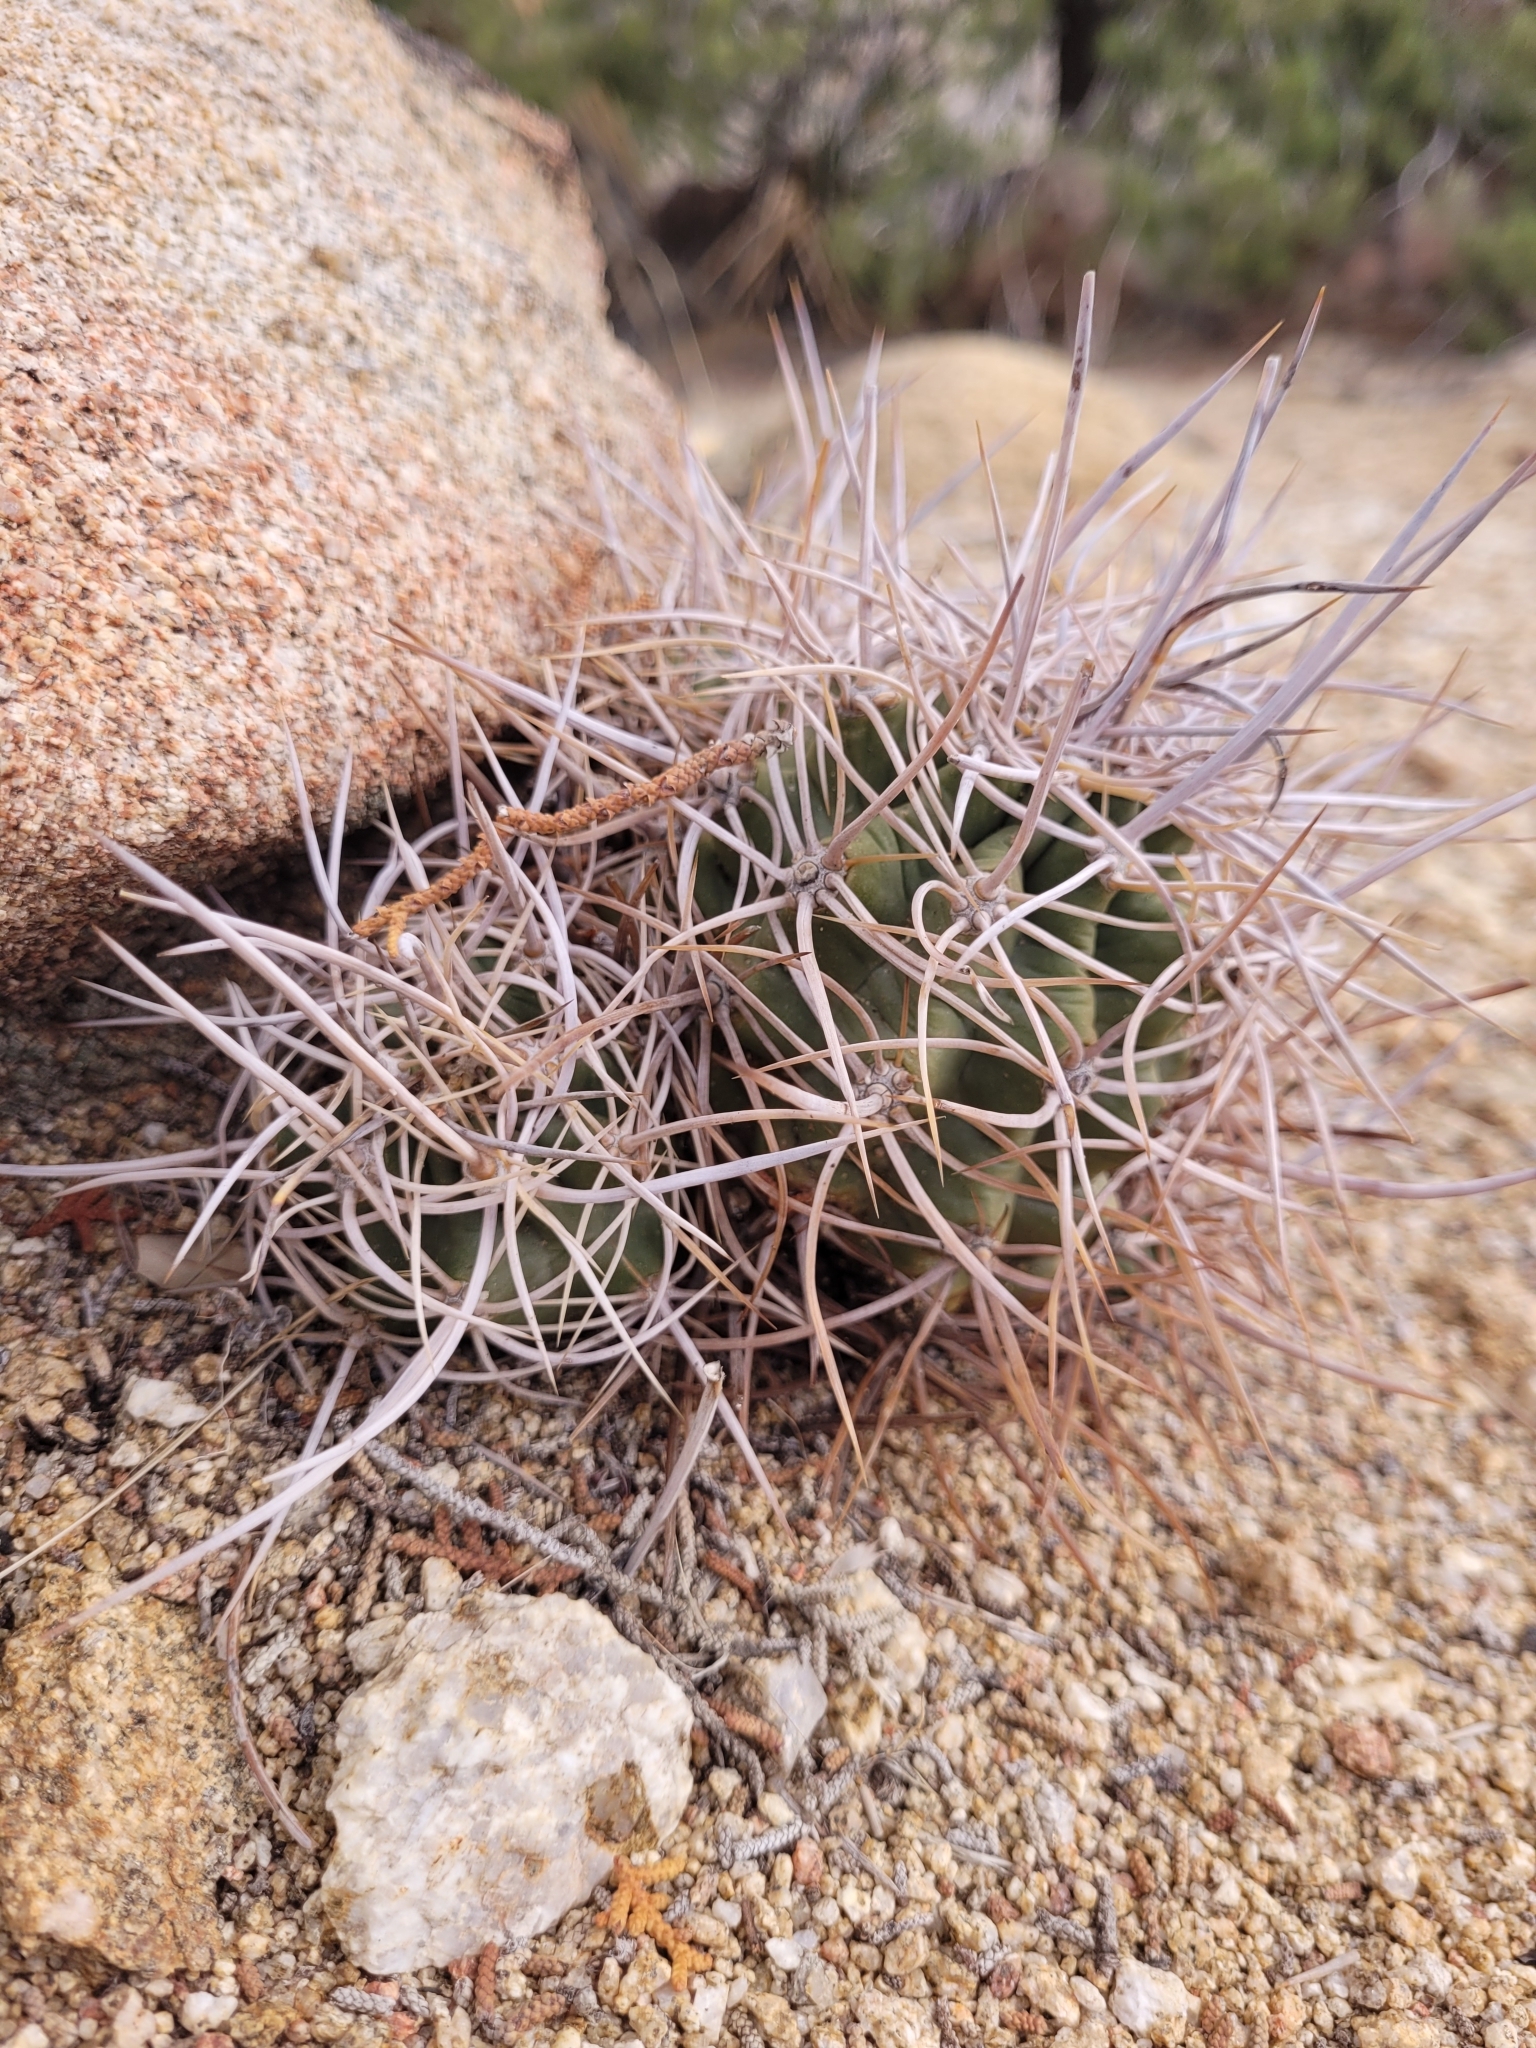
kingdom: Plantae
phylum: Tracheophyta
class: Magnoliopsida
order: Caryophyllales
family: Cactaceae
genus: Echinocereus
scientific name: Echinocereus triglochidiatus
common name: Claretcup hedgehog
